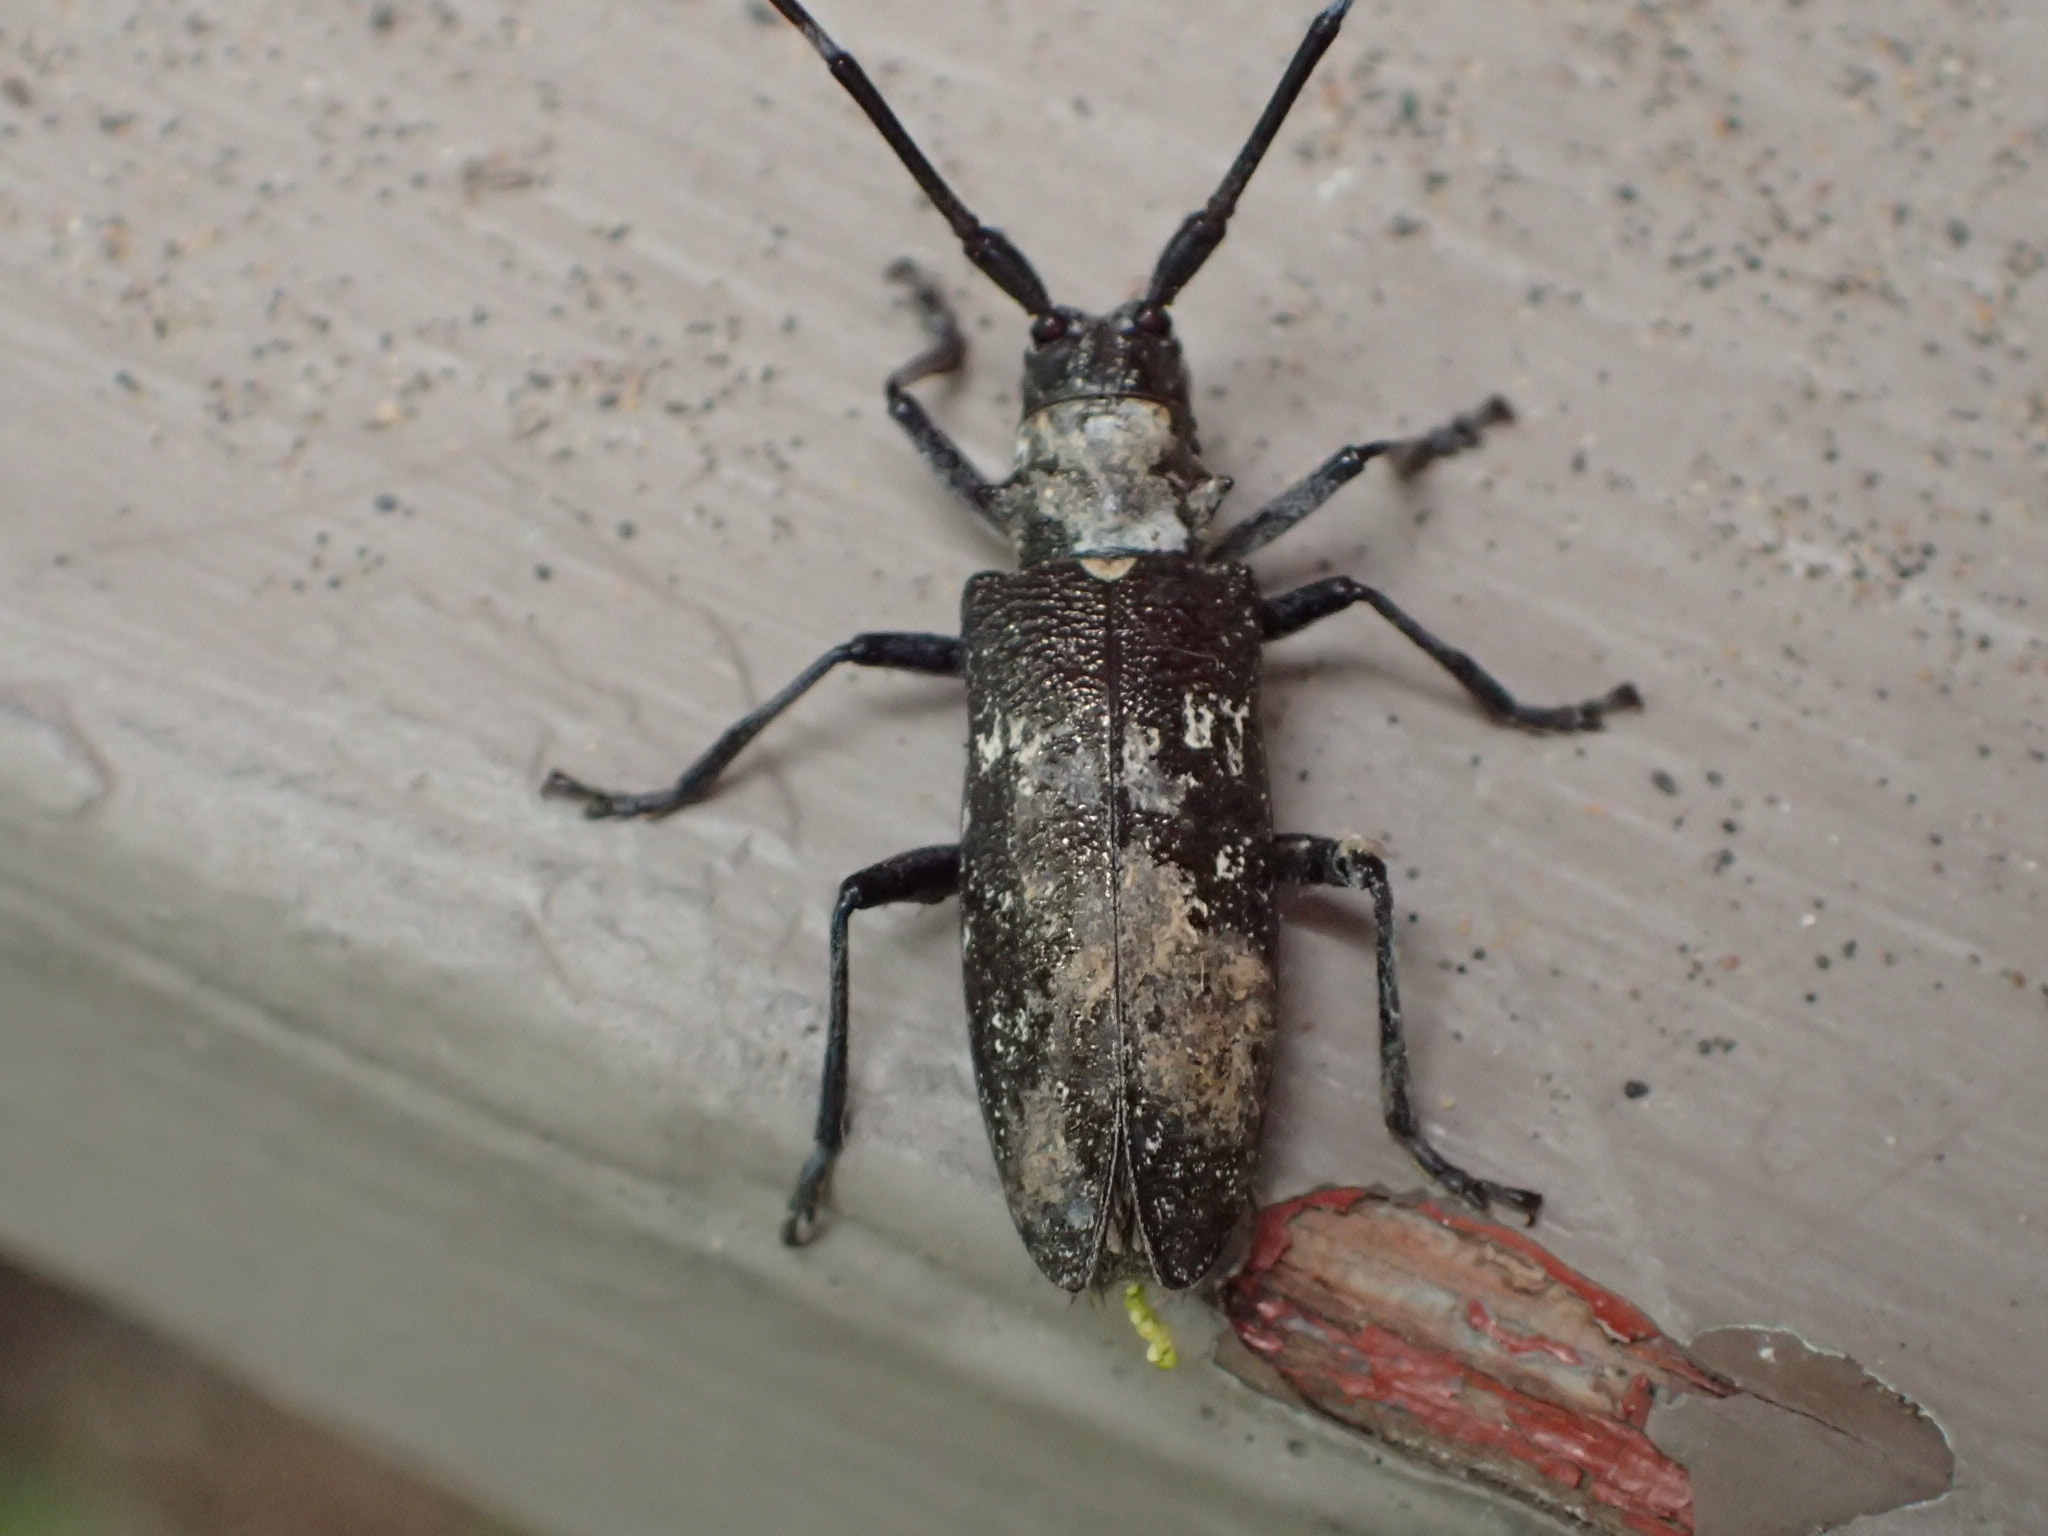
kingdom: Animalia
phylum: Arthropoda
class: Insecta
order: Coleoptera
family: Cerambycidae
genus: Monochamus
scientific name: Monochamus scutellatus
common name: White-spotted sawyer beetle
